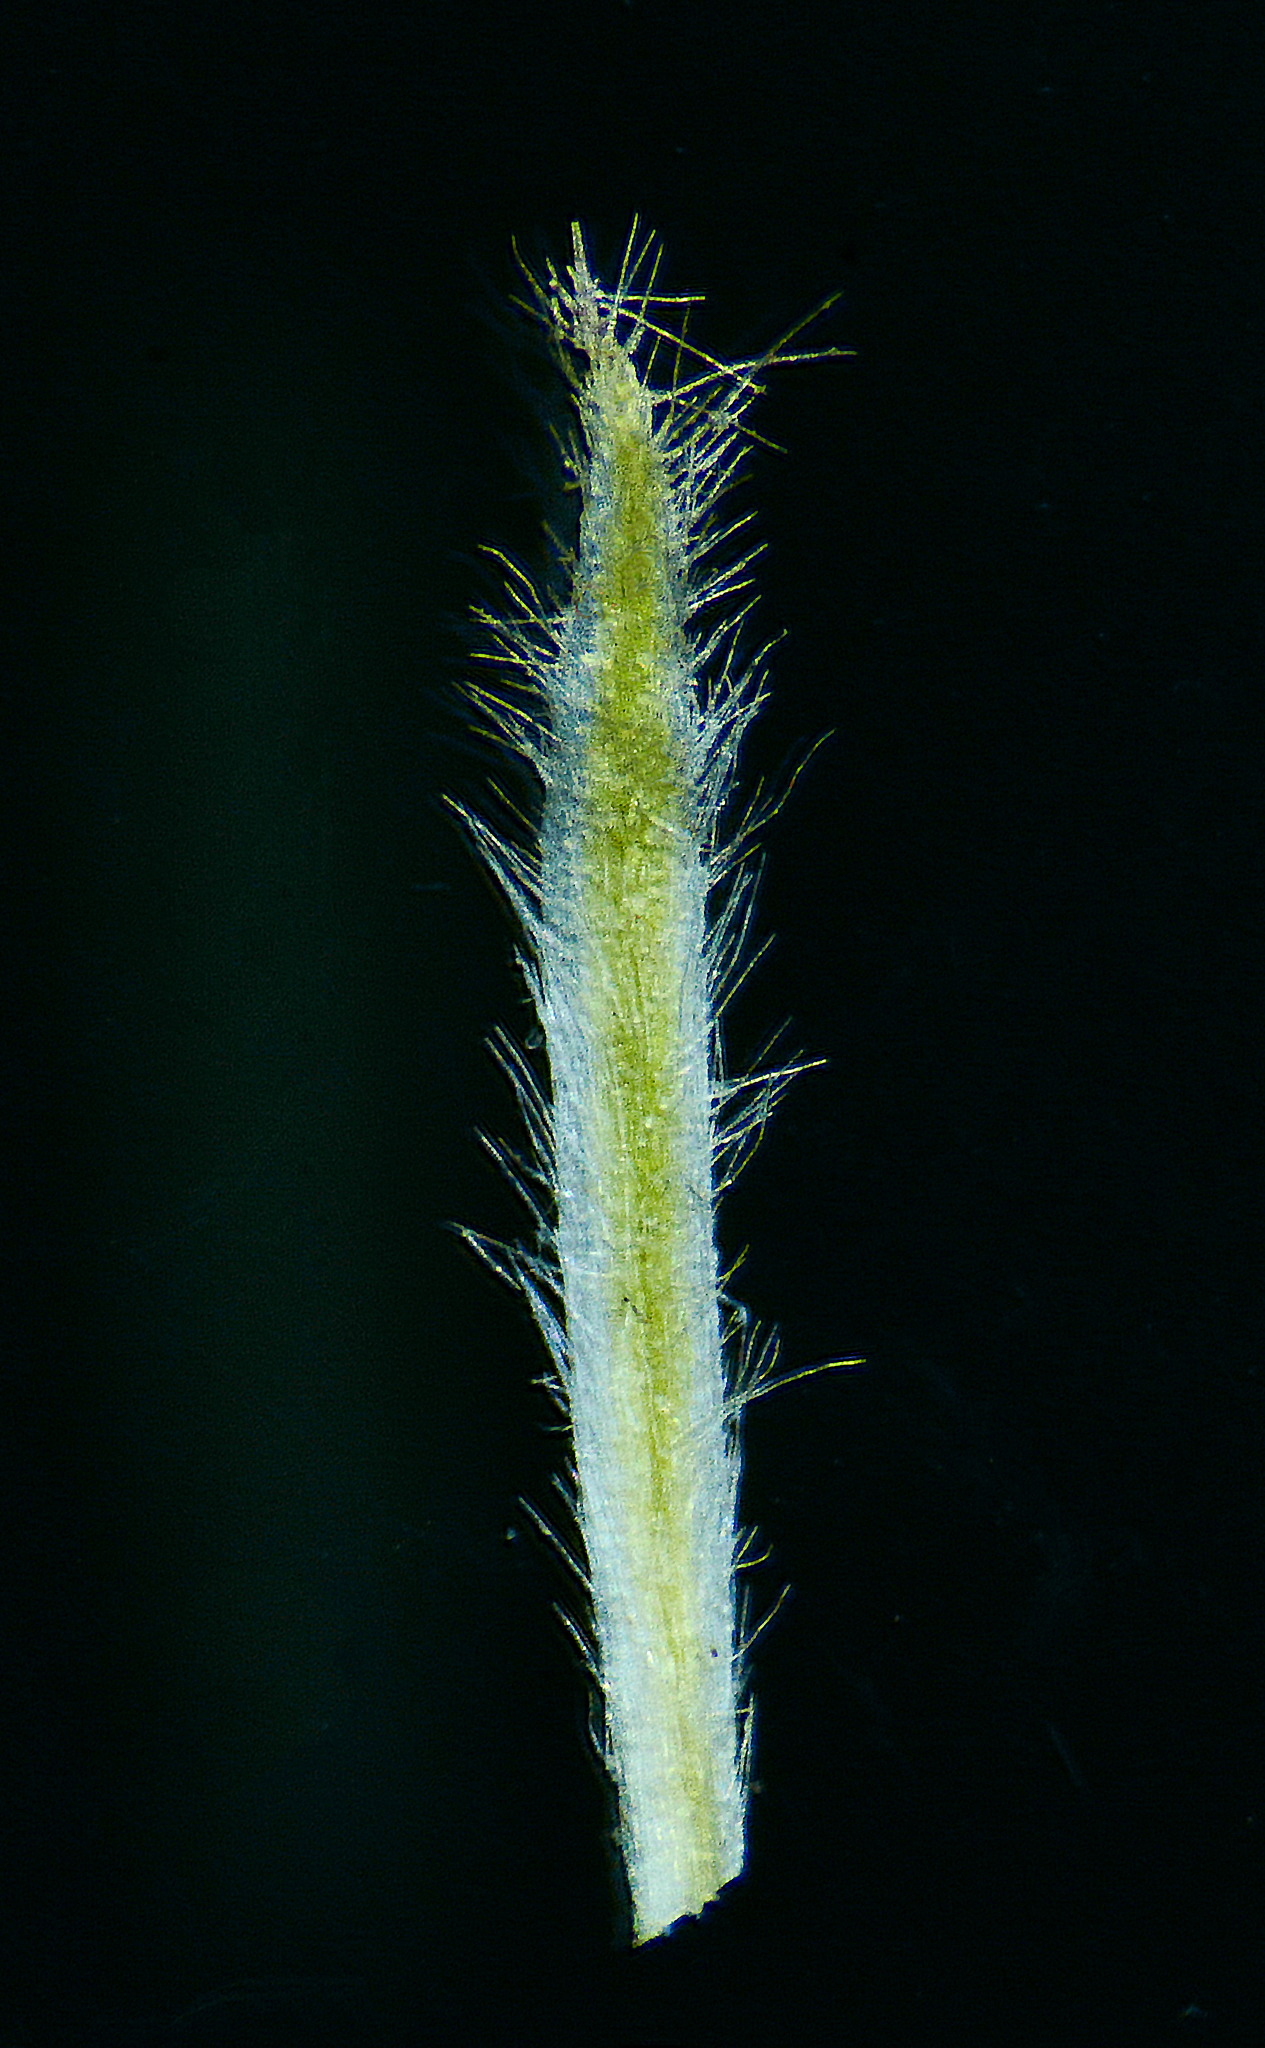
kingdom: Plantae
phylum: Tracheophyta
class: Magnoliopsida
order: Asterales
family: Asteraceae
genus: Blumea
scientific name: Blumea eriantha
